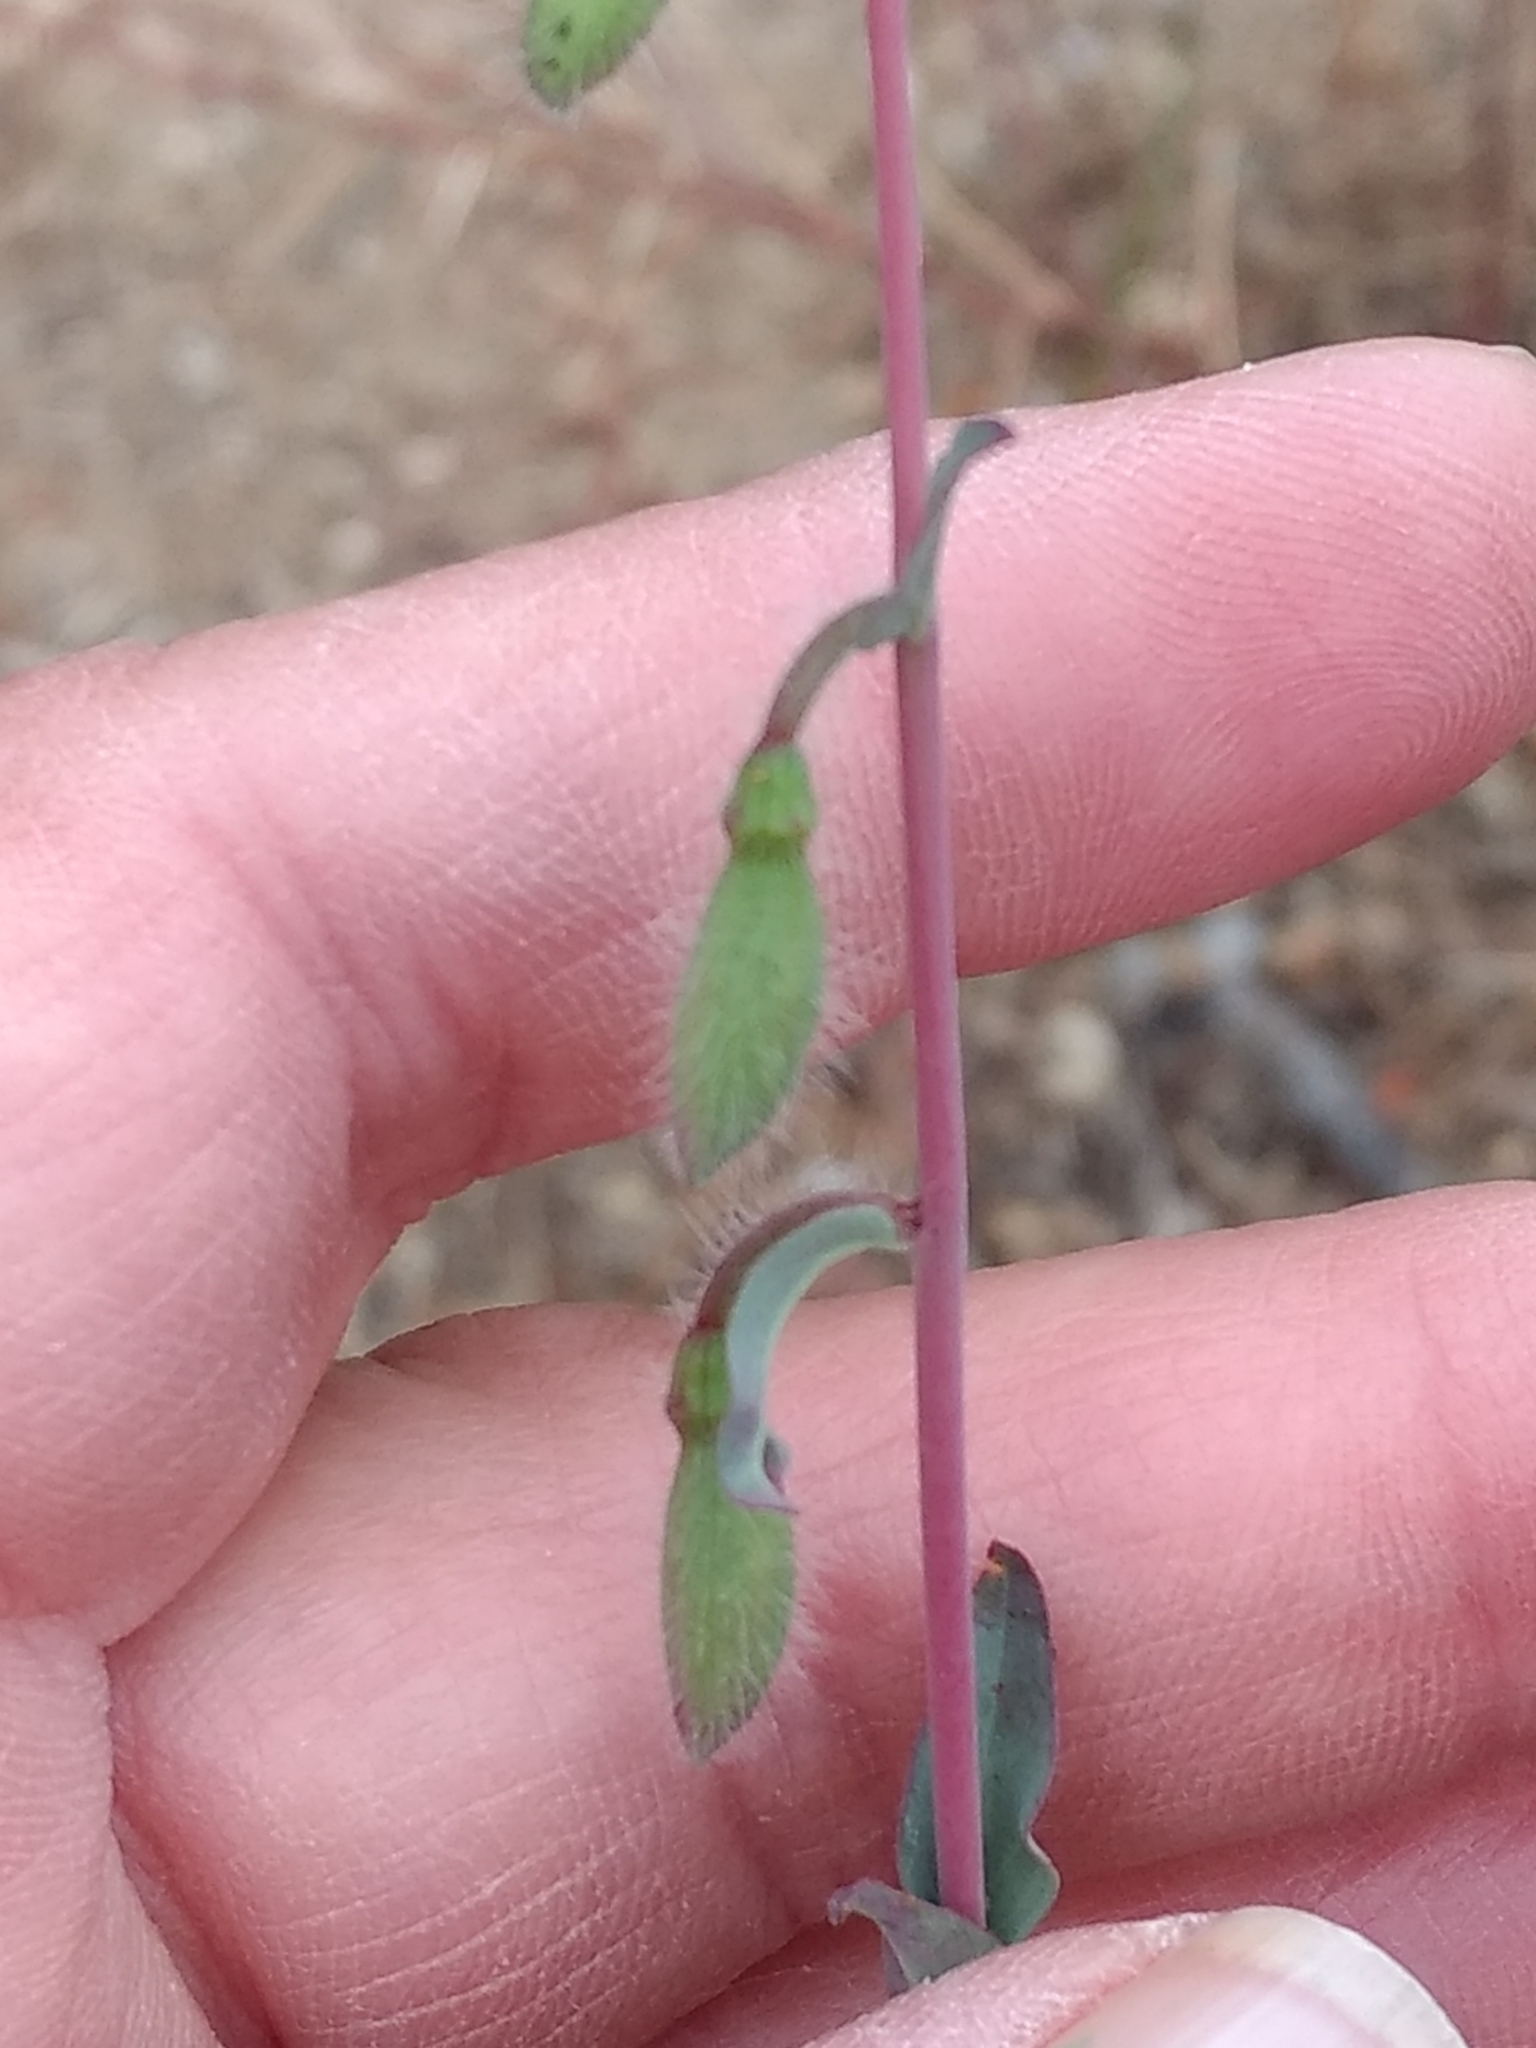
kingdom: Plantae
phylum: Tracheophyta
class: Magnoliopsida
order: Myrtales
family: Onagraceae
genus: Clarkia
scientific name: Clarkia unguiculata
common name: Clarkia
